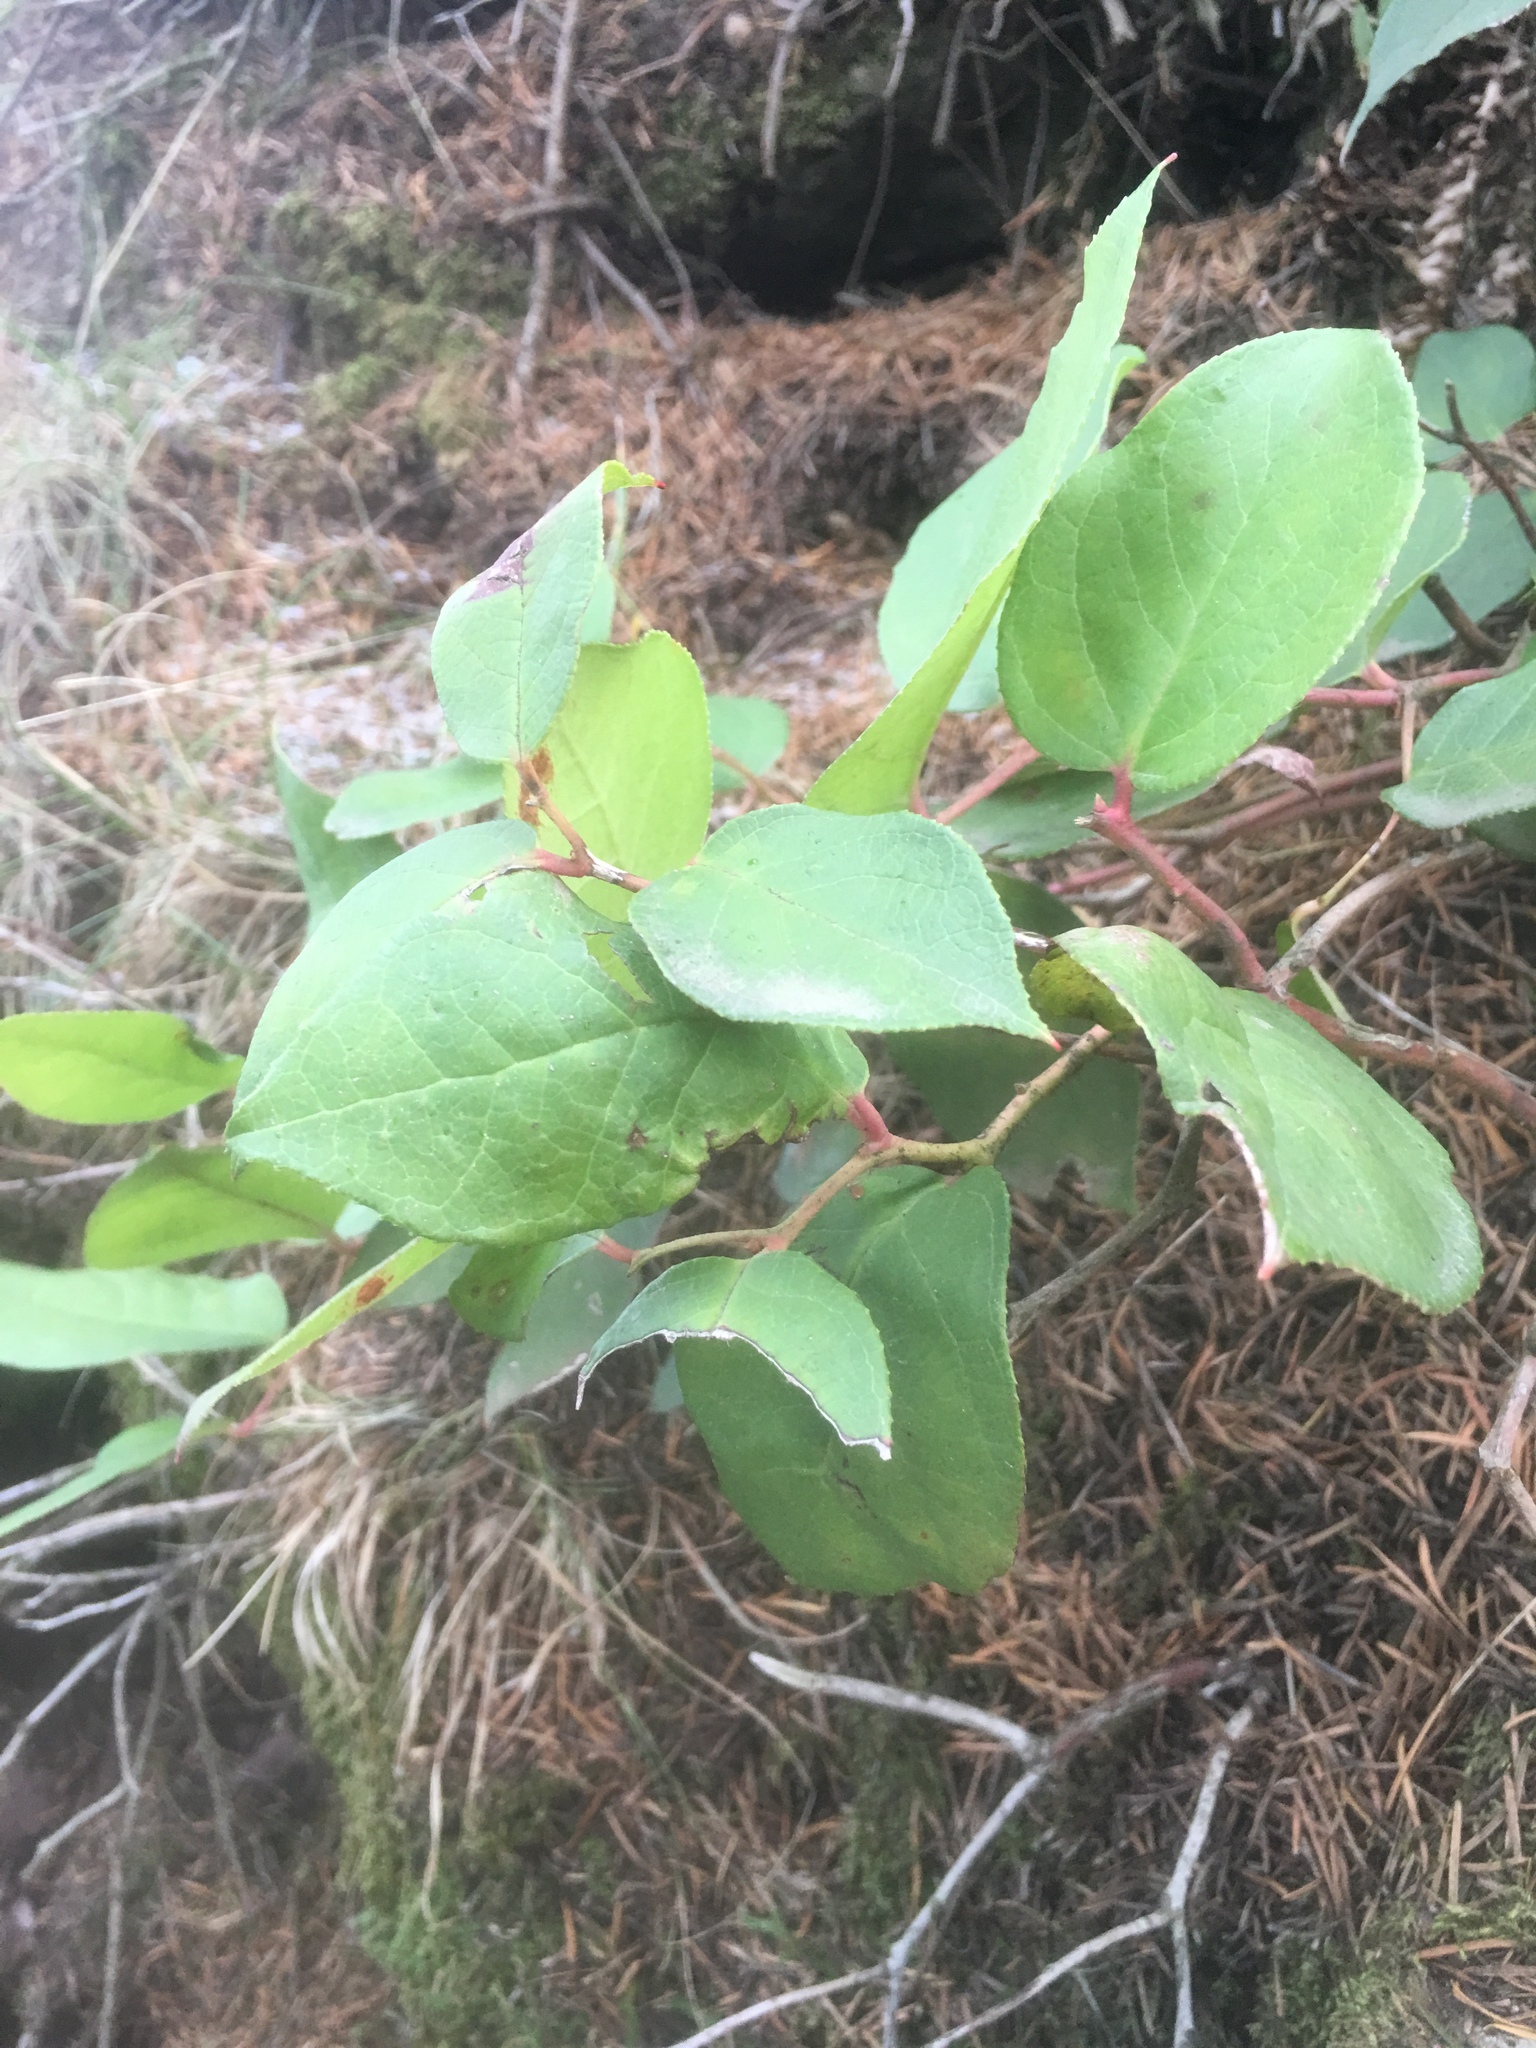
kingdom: Plantae
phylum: Tracheophyta
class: Magnoliopsida
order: Ericales
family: Ericaceae
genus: Gaultheria
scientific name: Gaultheria shallon
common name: Shallon
